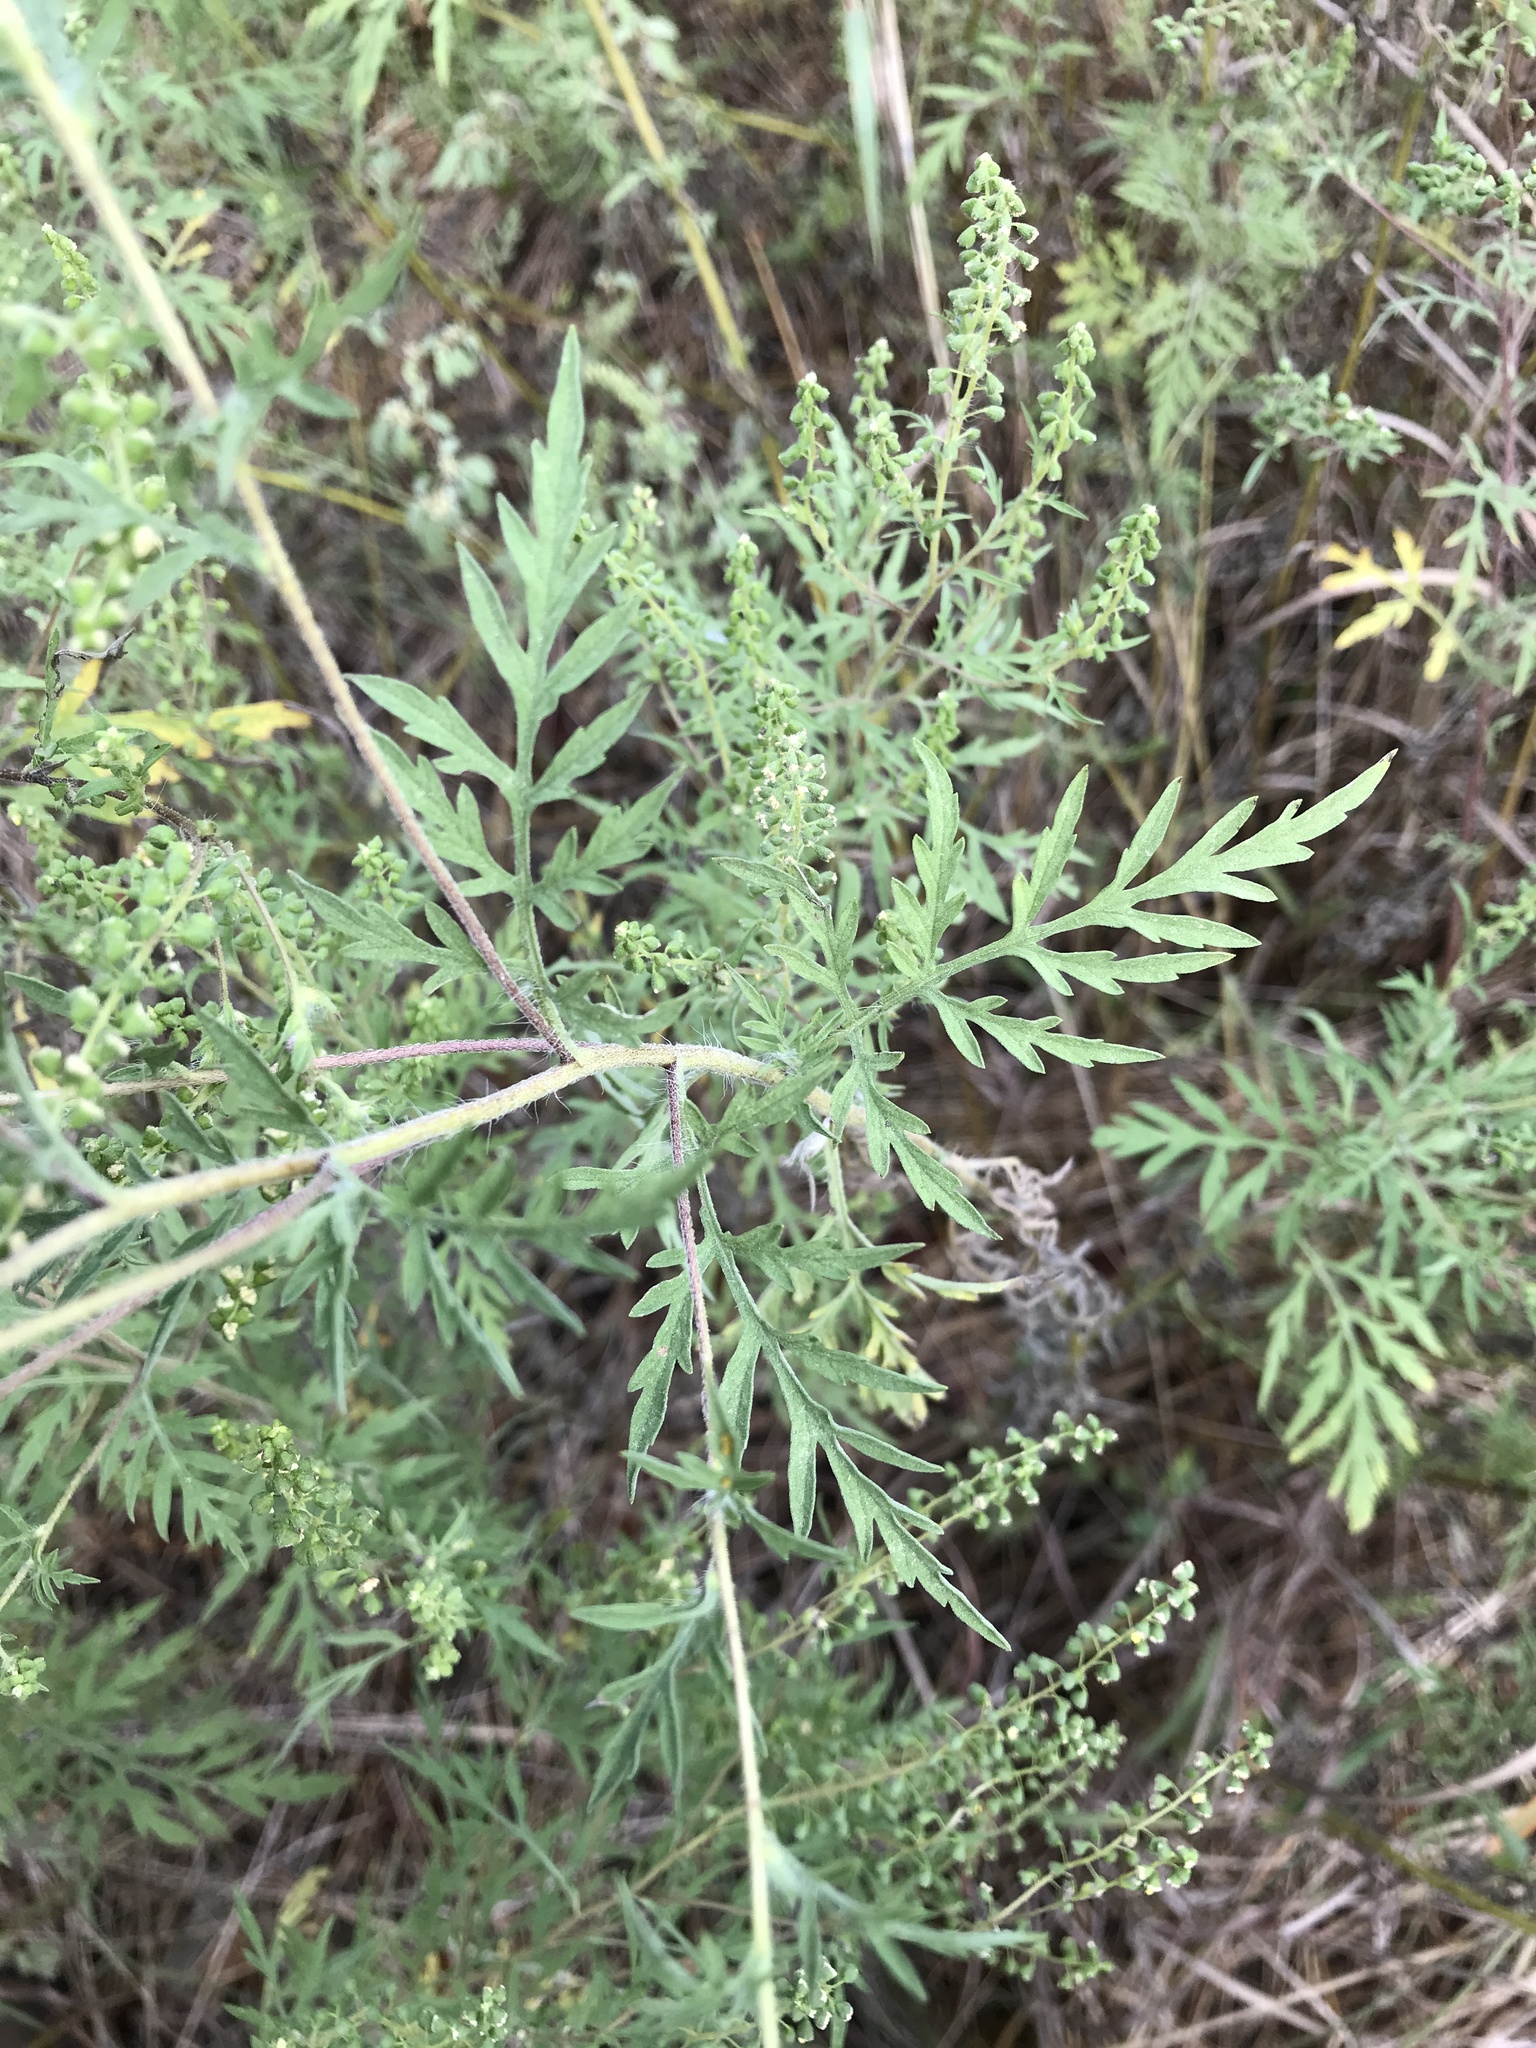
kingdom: Plantae
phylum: Tracheophyta
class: Magnoliopsida
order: Asterales
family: Asteraceae
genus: Ambrosia
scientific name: Ambrosia artemisiifolia
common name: Annual ragweed
